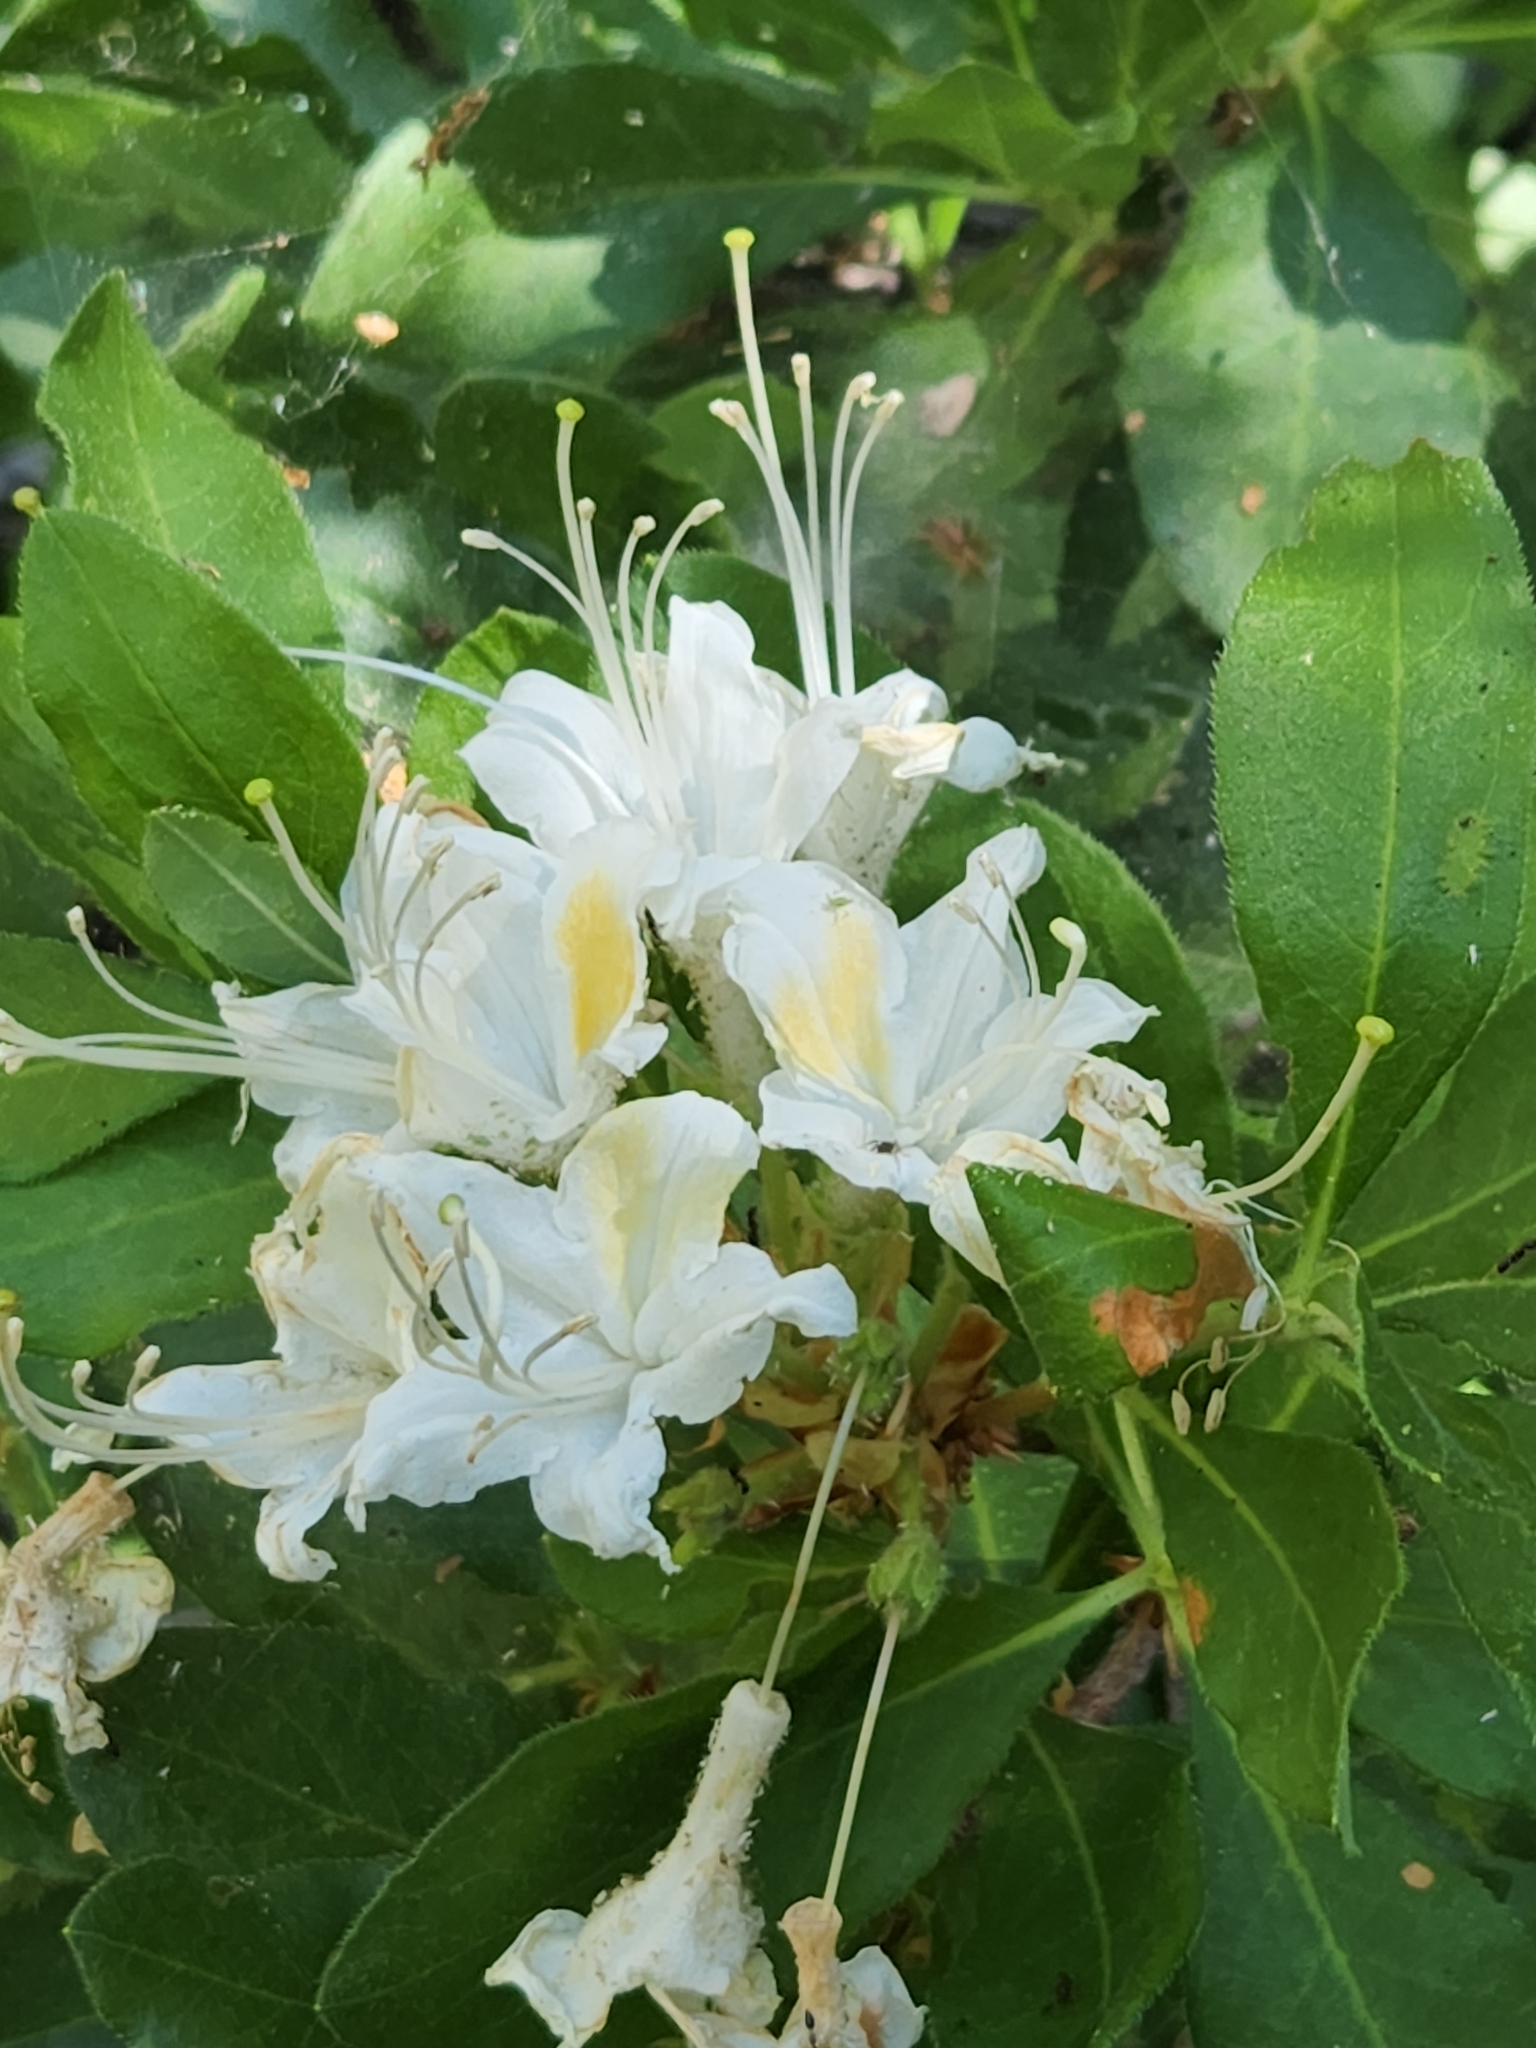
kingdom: Plantae
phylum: Tracheophyta
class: Magnoliopsida
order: Ericales
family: Ericaceae
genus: Rhododendron
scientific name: Rhododendron occidentale
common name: Western azalea
